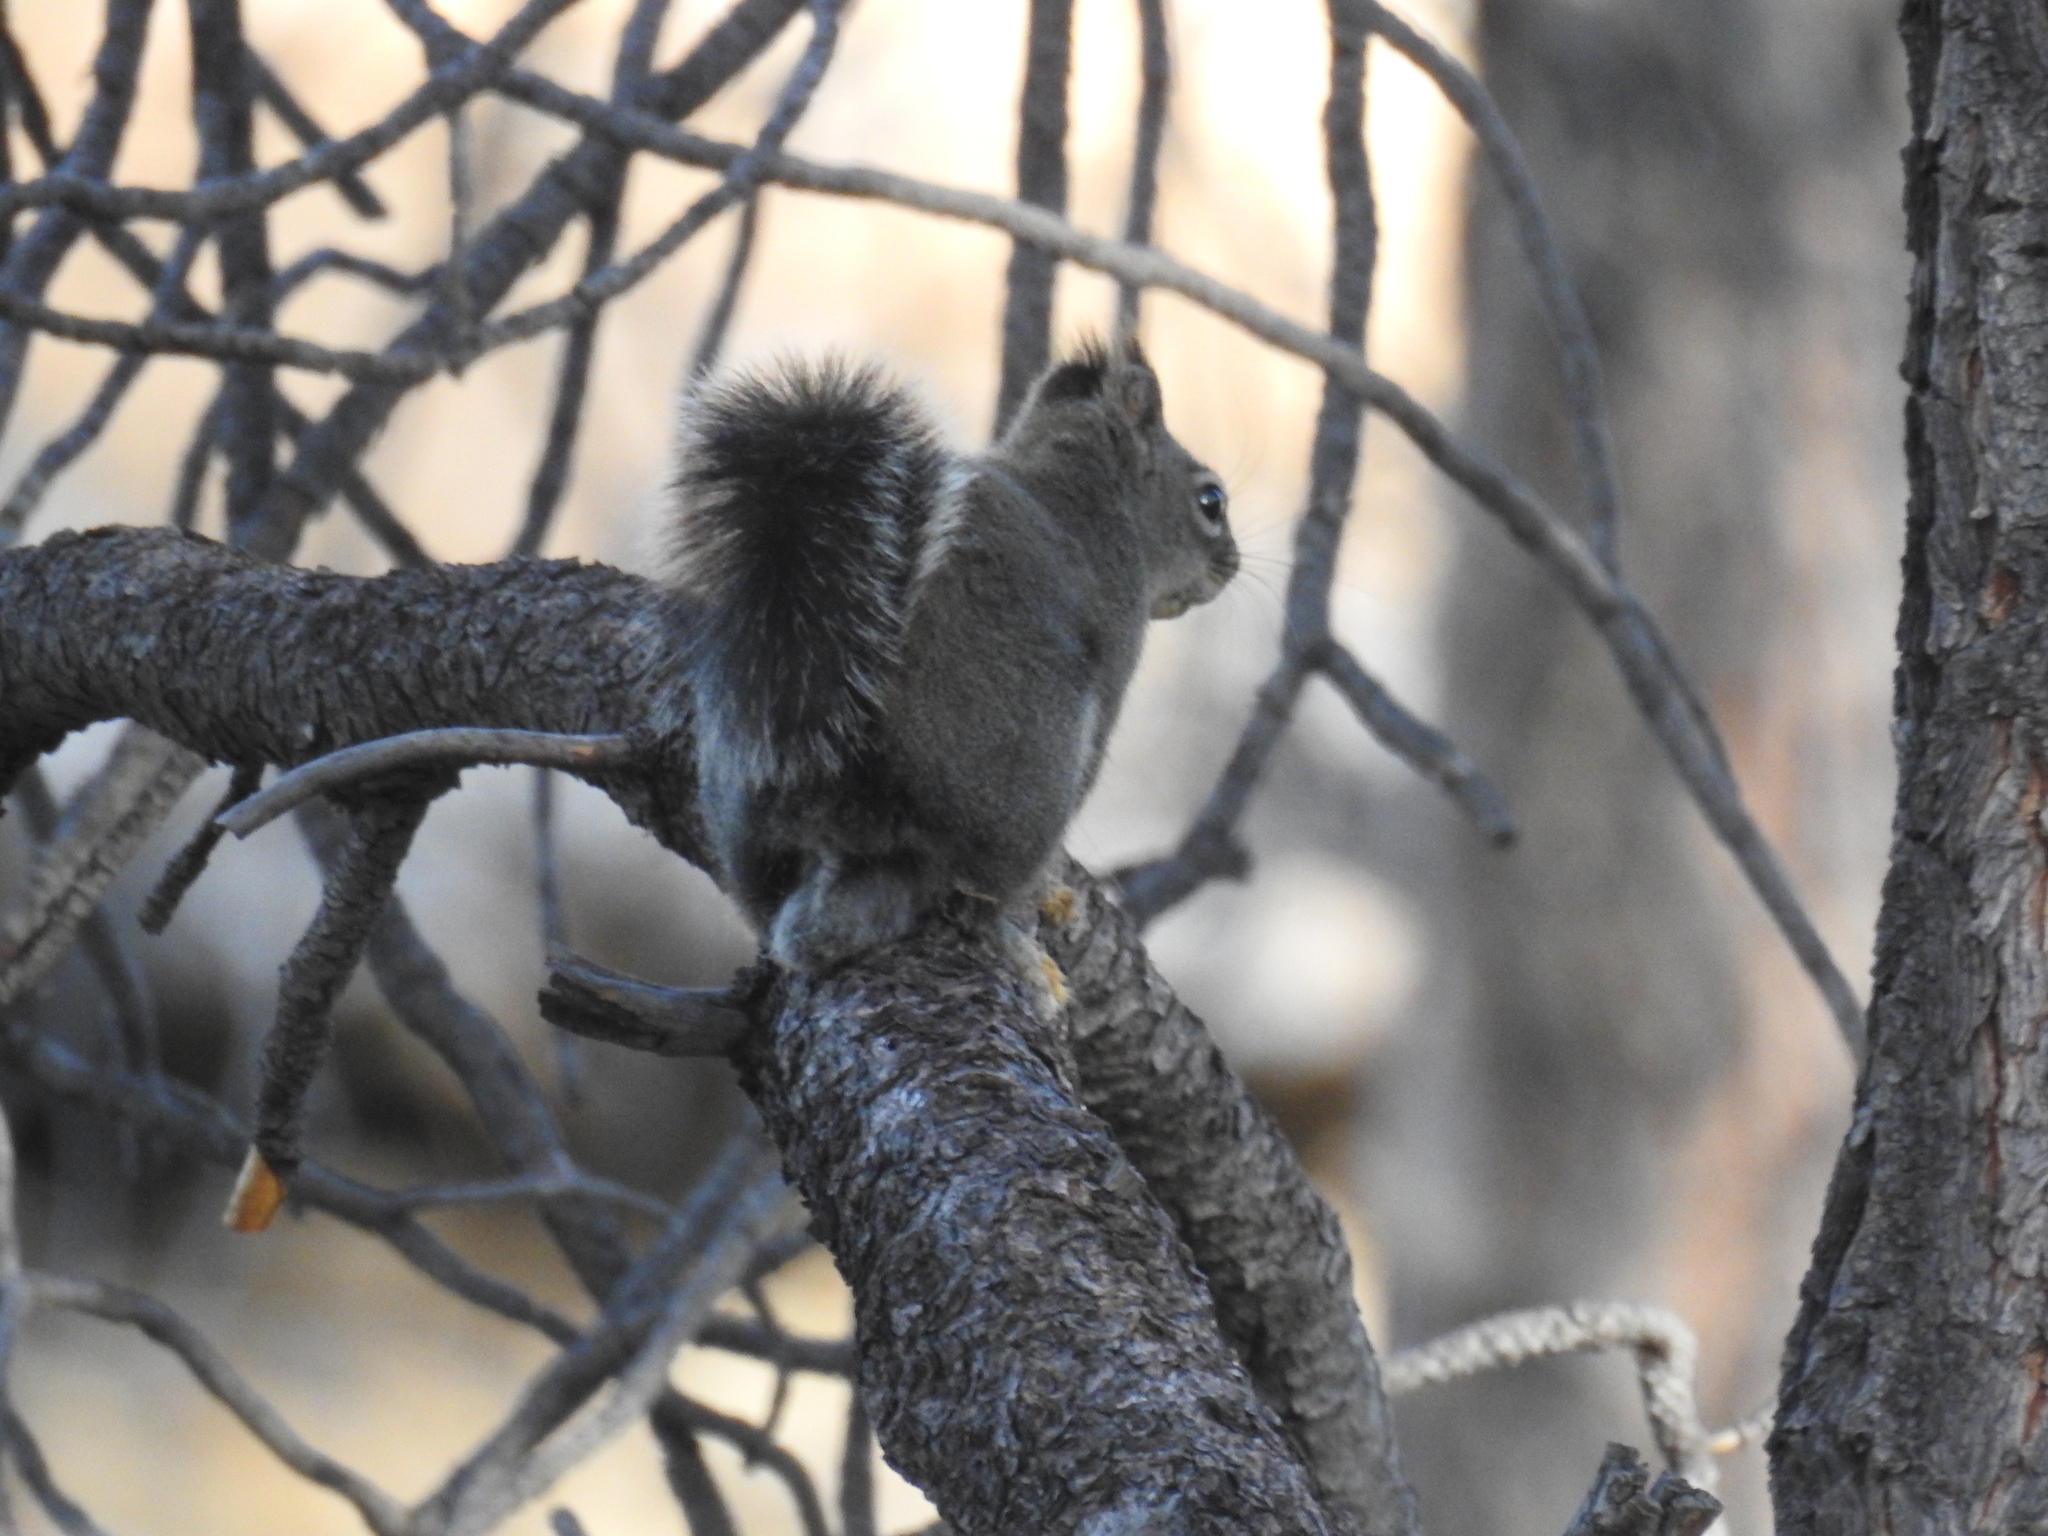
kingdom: Animalia
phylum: Chordata
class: Mammalia
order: Rodentia
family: Sciuridae
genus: Tamiasciurus
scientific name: Tamiasciurus douglasii
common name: Douglas's squirrel
